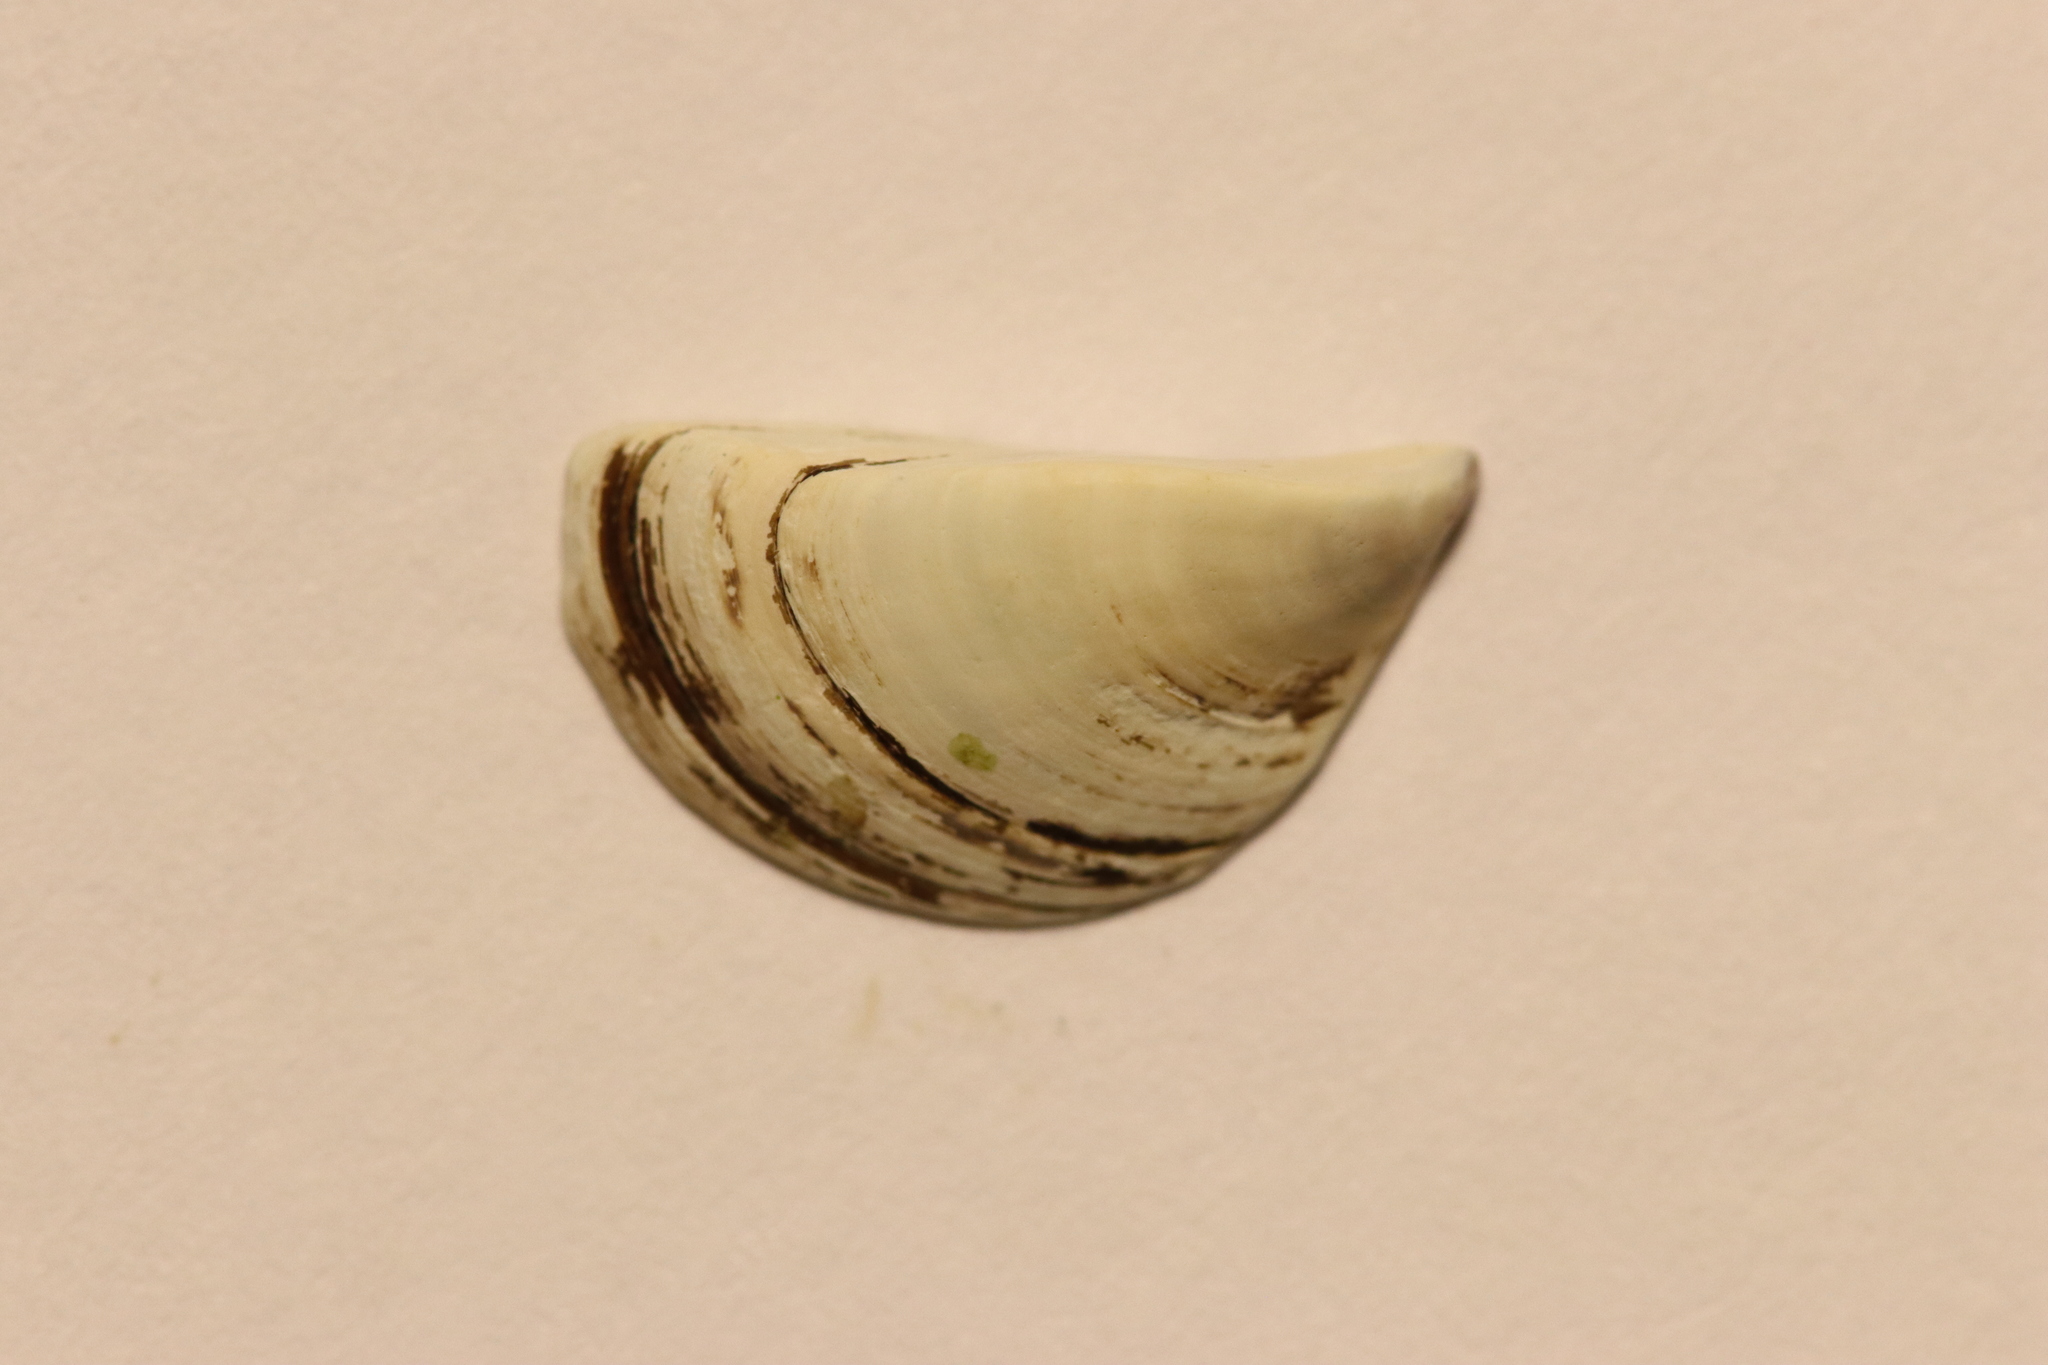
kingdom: Animalia
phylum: Mollusca
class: Bivalvia
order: Myida
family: Dreissenidae
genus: Dreissena
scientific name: Dreissena polymorpha
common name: Zebra mussel
